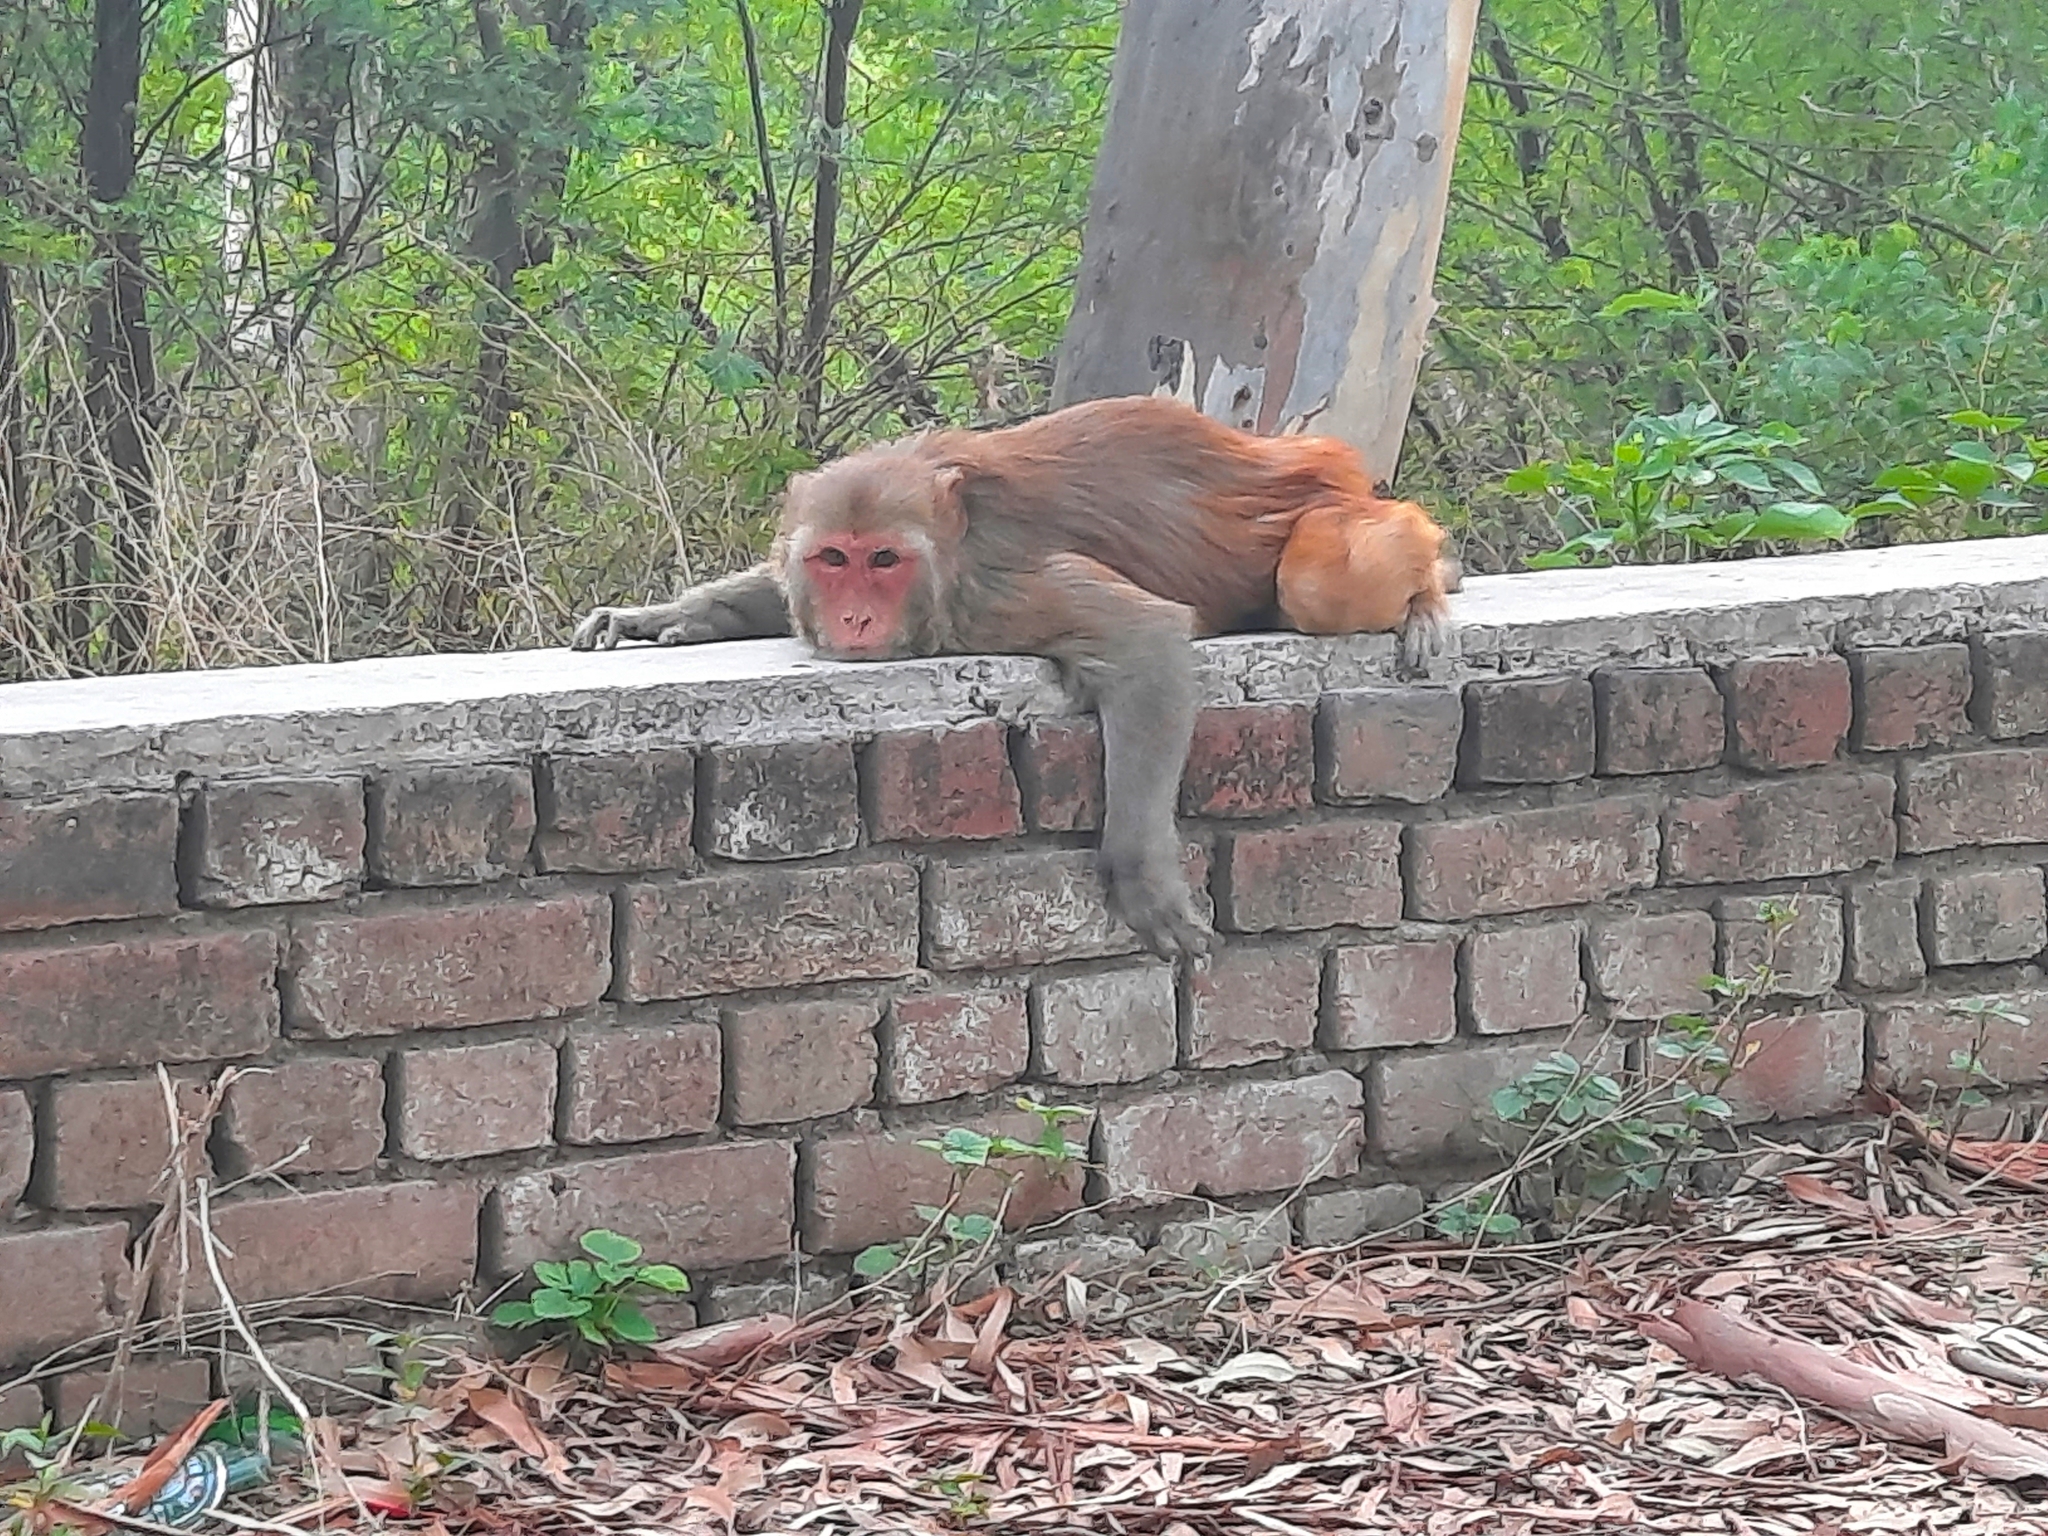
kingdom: Animalia
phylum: Chordata
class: Mammalia
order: Primates
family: Cercopithecidae
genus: Macaca
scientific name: Macaca mulatta
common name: Rhesus monkey
